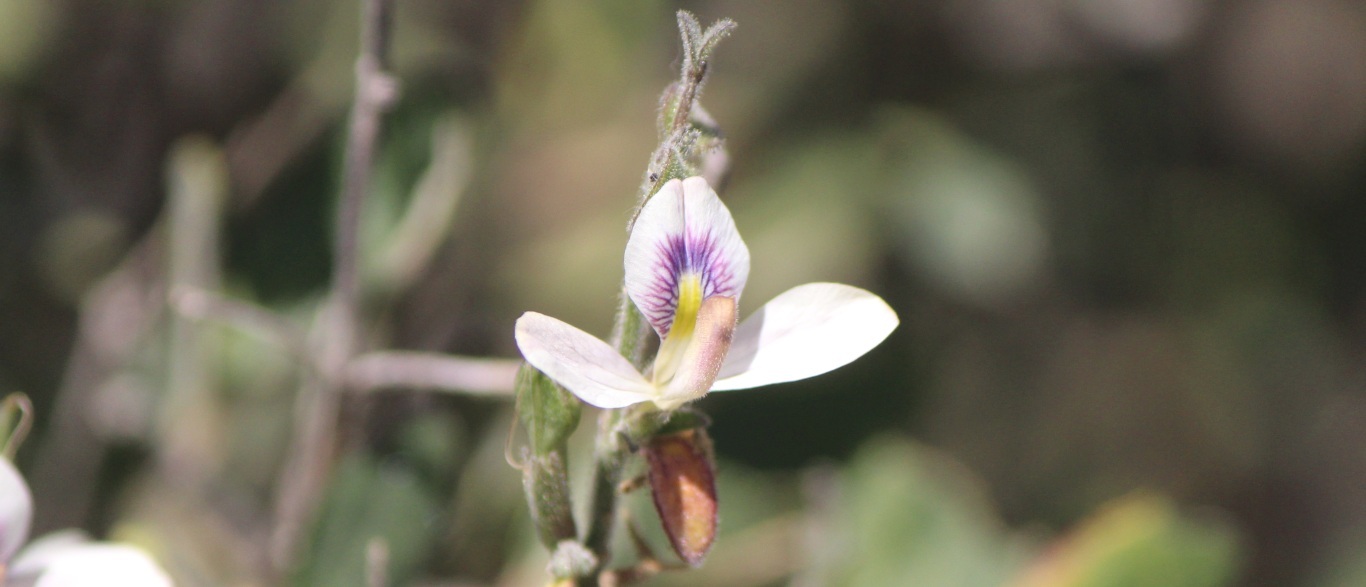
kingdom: Plantae
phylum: Tracheophyta
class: Magnoliopsida
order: Lamiales
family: Acanthaceae
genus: Carlowrightia
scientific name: Carlowrightia arizonica
